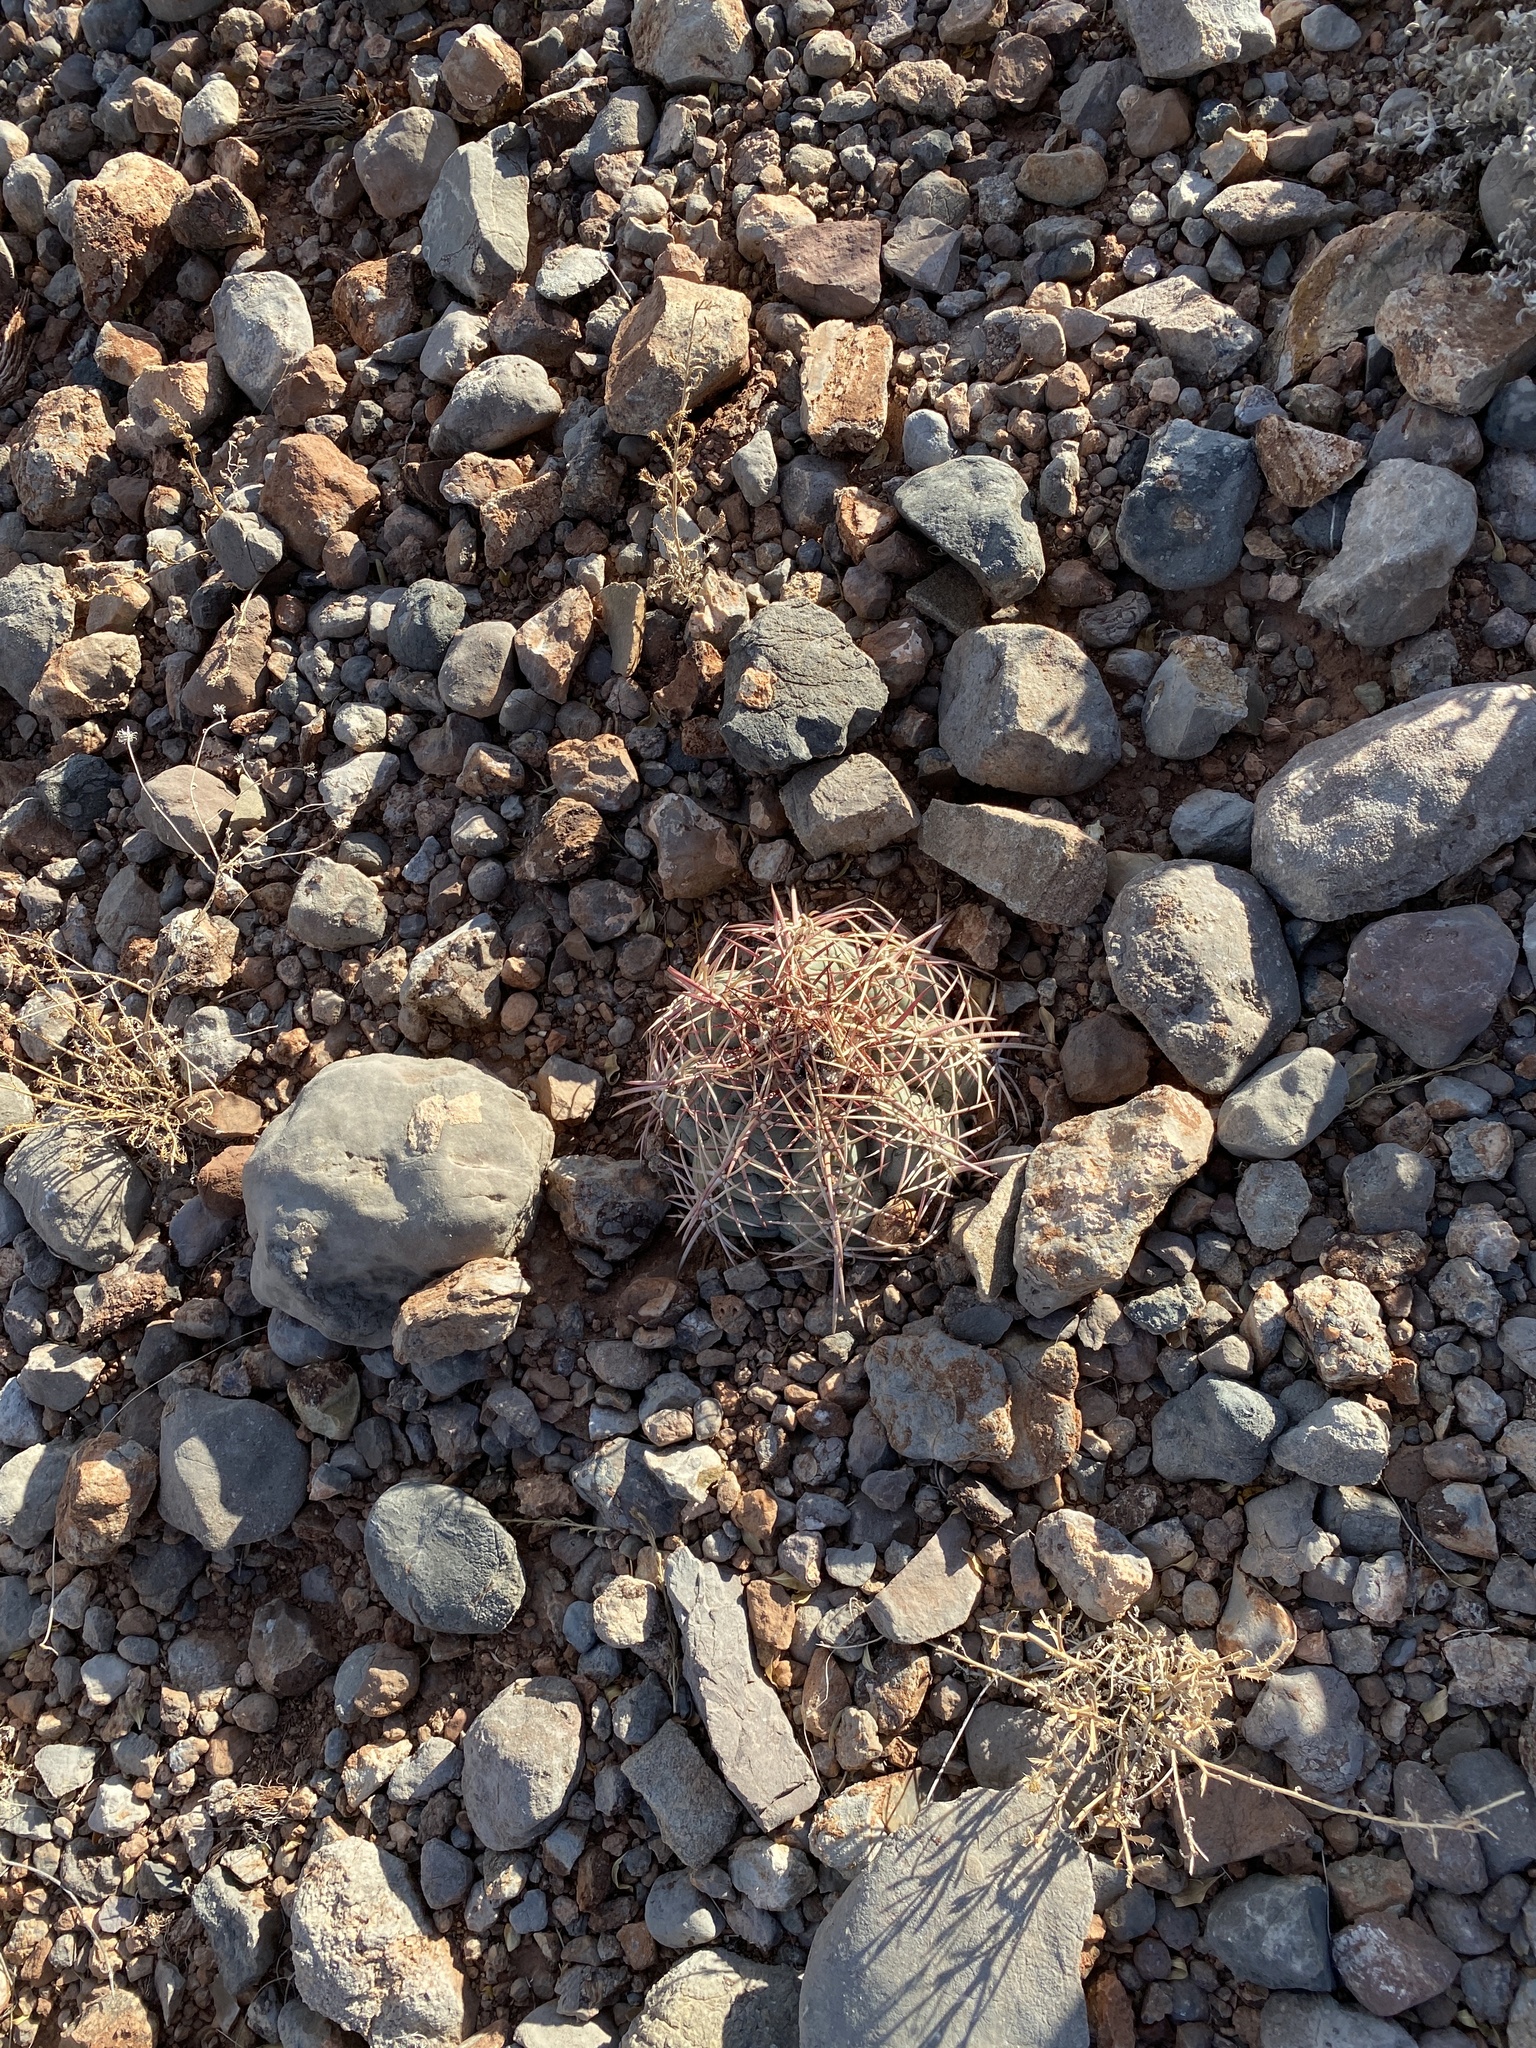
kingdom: Plantae
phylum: Tracheophyta
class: Magnoliopsida
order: Caryophyllales
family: Cactaceae
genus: Echinocactus
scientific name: Echinocactus horizonthalonius
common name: Devilshead
